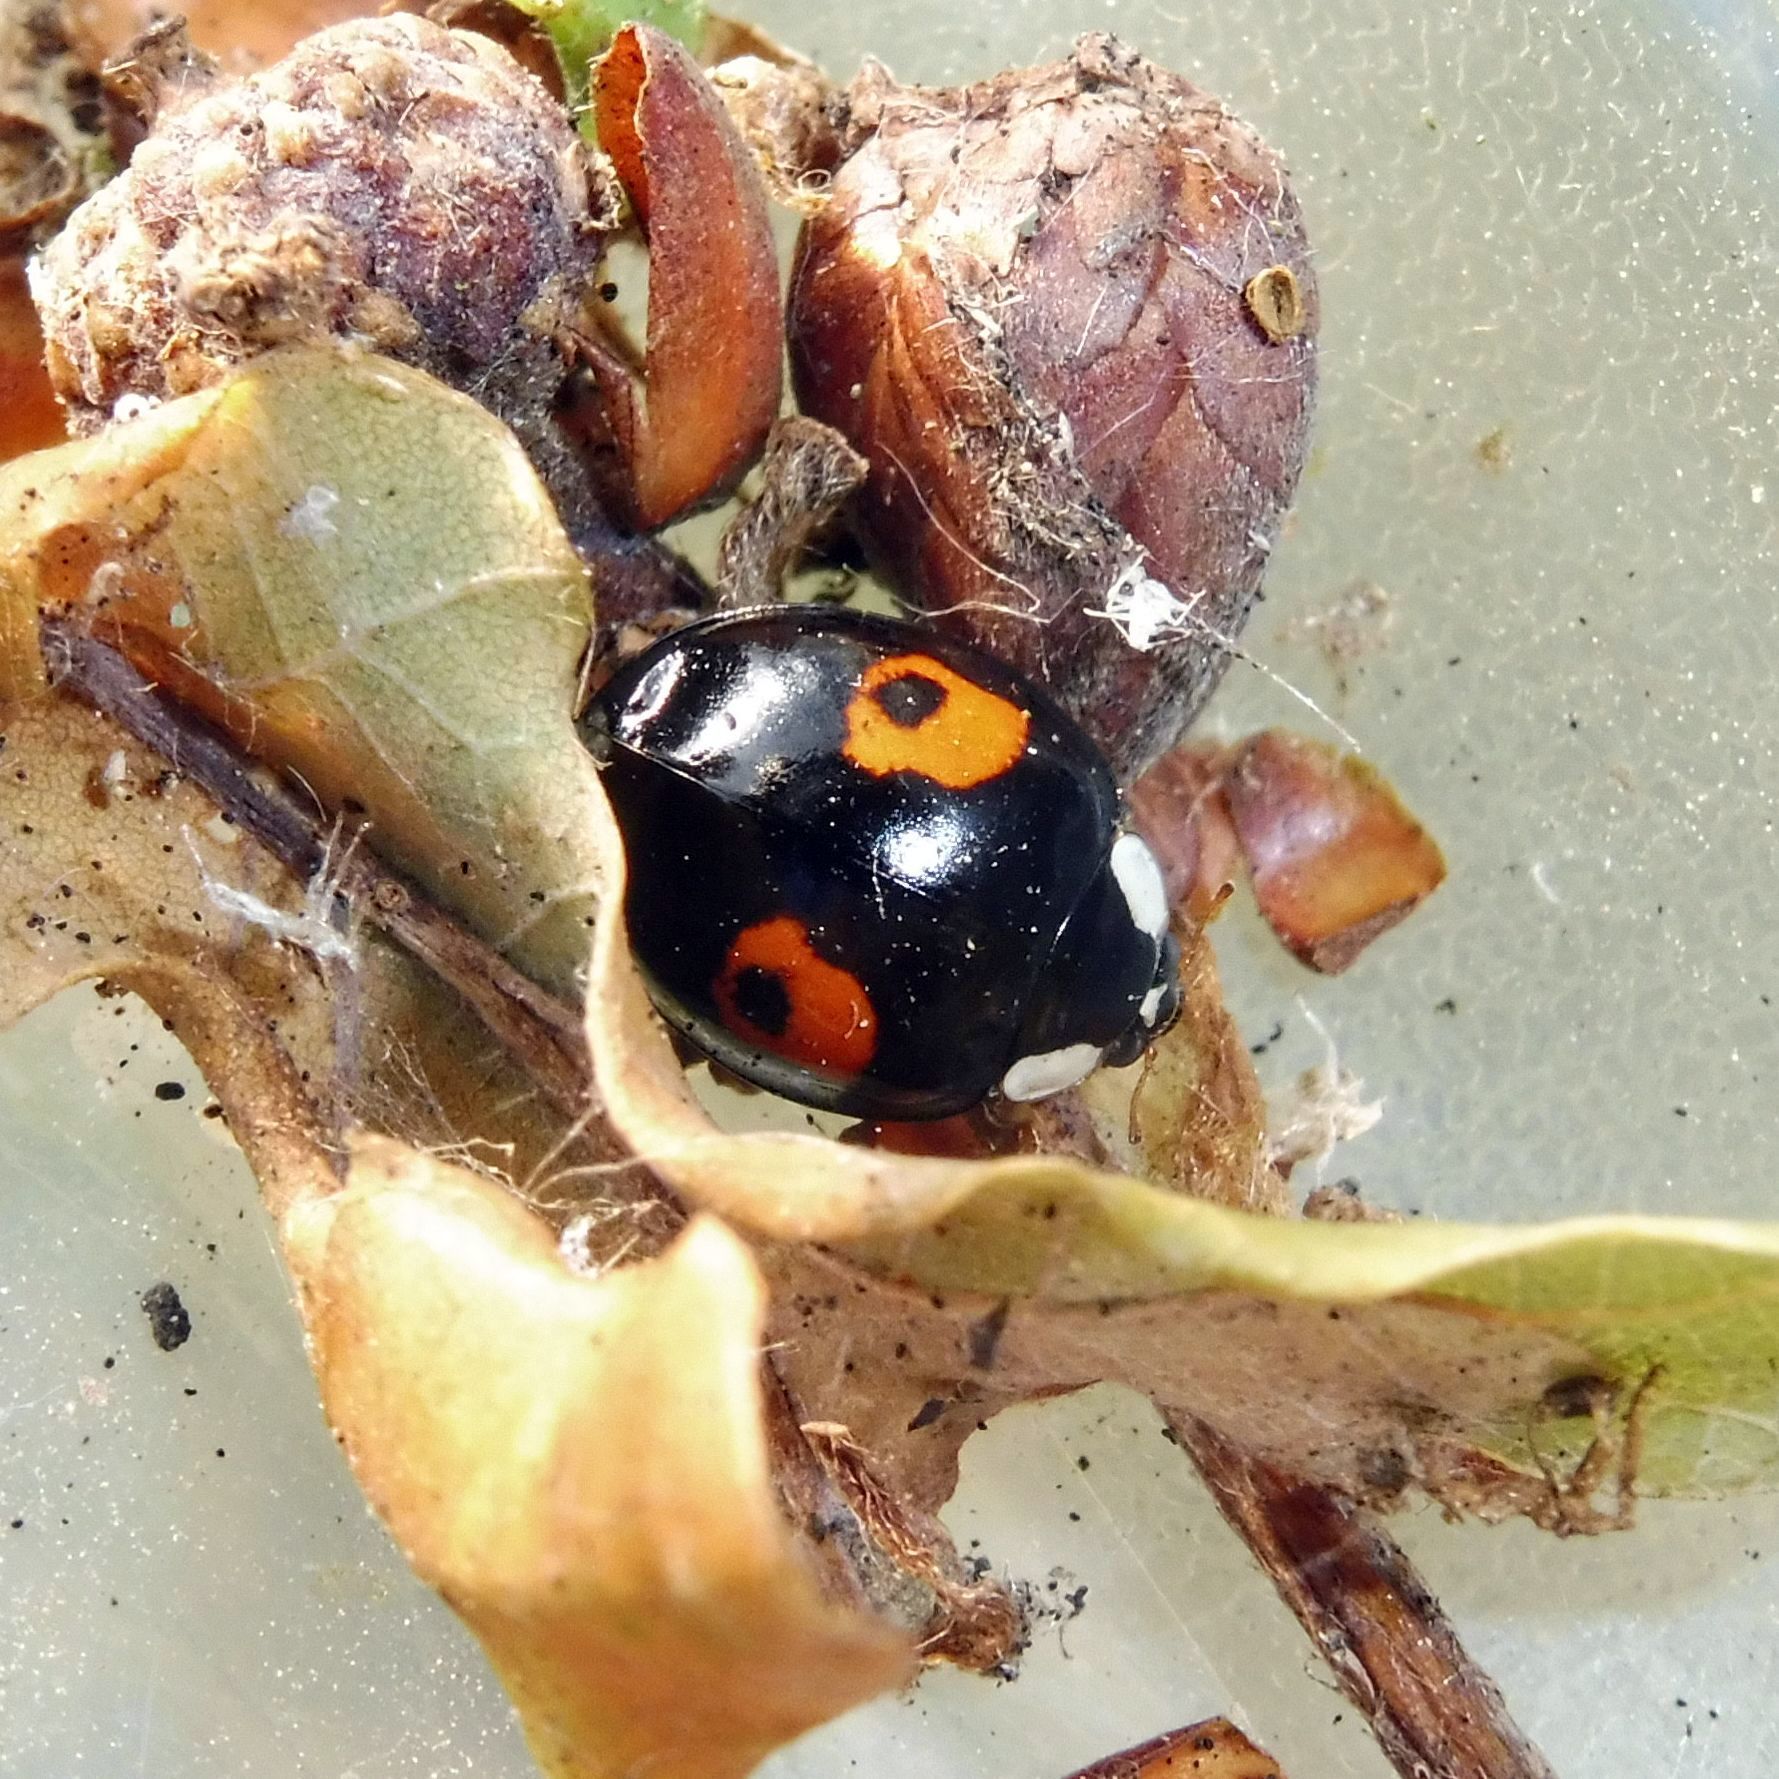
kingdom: Animalia
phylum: Arthropoda
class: Insecta
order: Coleoptera
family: Coccinellidae
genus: Harmonia
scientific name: Harmonia axyridis
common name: Harlequin ladybird
